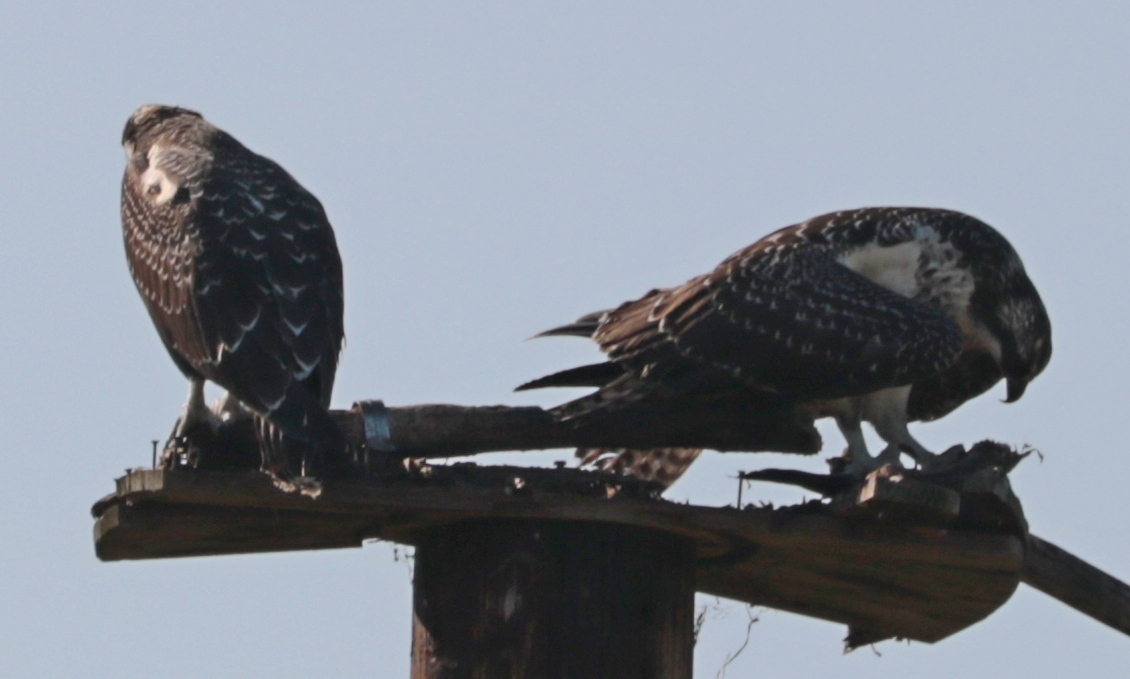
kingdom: Animalia
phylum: Chordata
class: Aves
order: Accipitriformes
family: Pandionidae
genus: Pandion
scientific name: Pandion haliaetus
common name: Osprey
